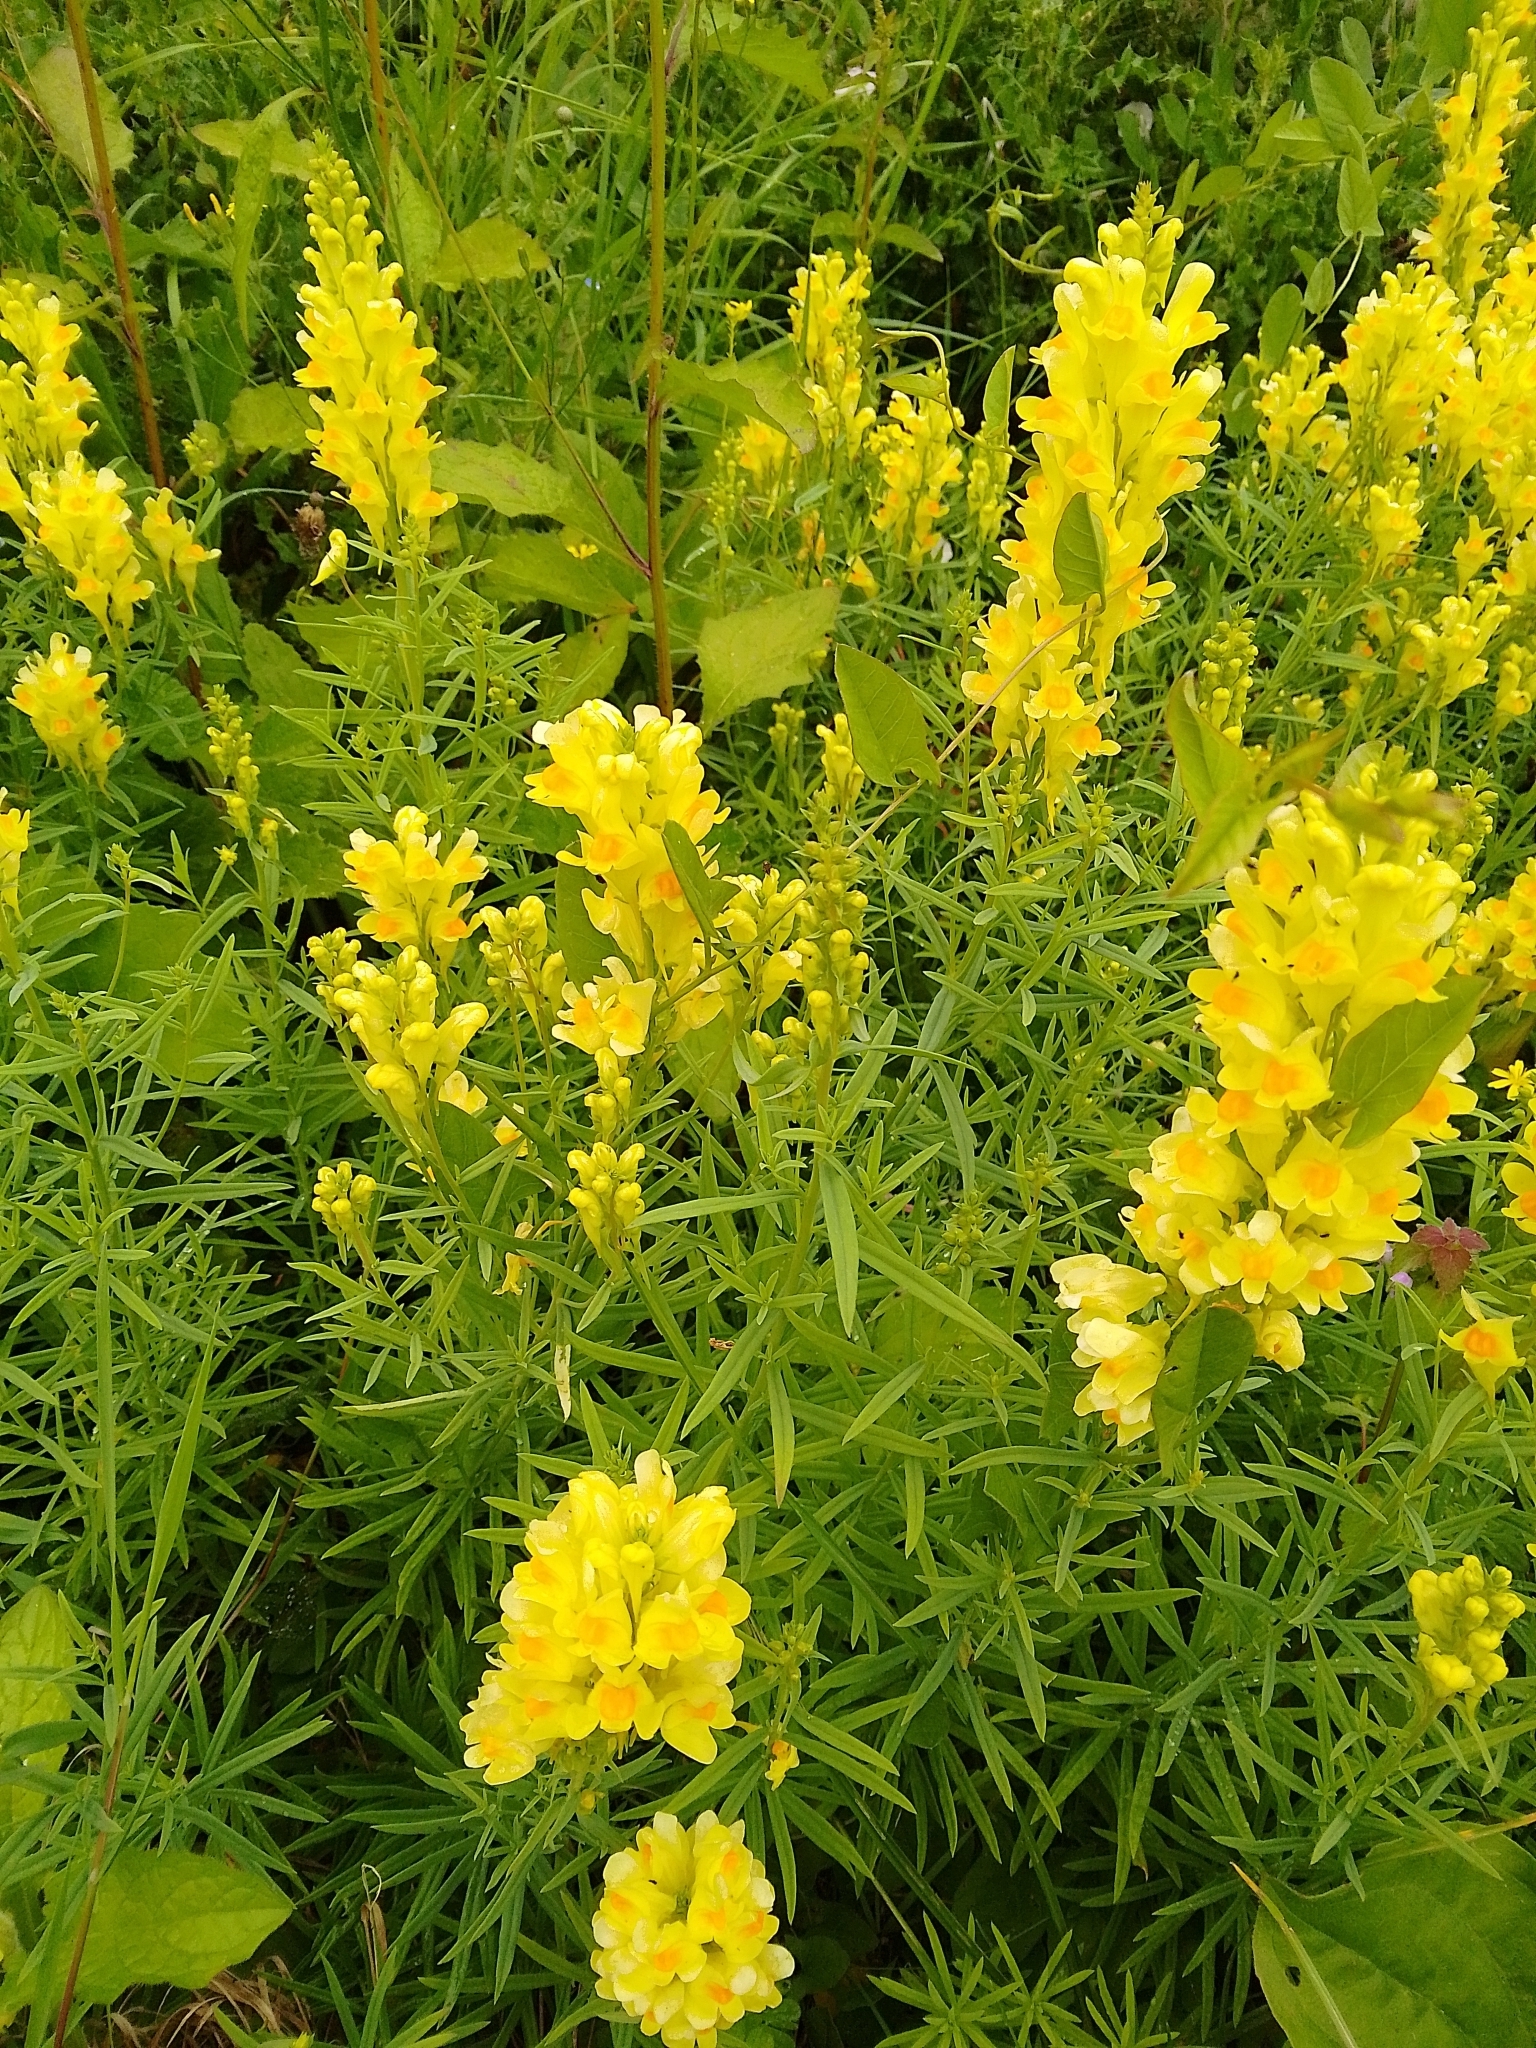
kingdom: Plantae
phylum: Tracheophyta
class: Magnoliopsida
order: Lamiales
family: Plantaginaceae
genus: Linaria
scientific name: Linaria vulgaris
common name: Butter and eggs
